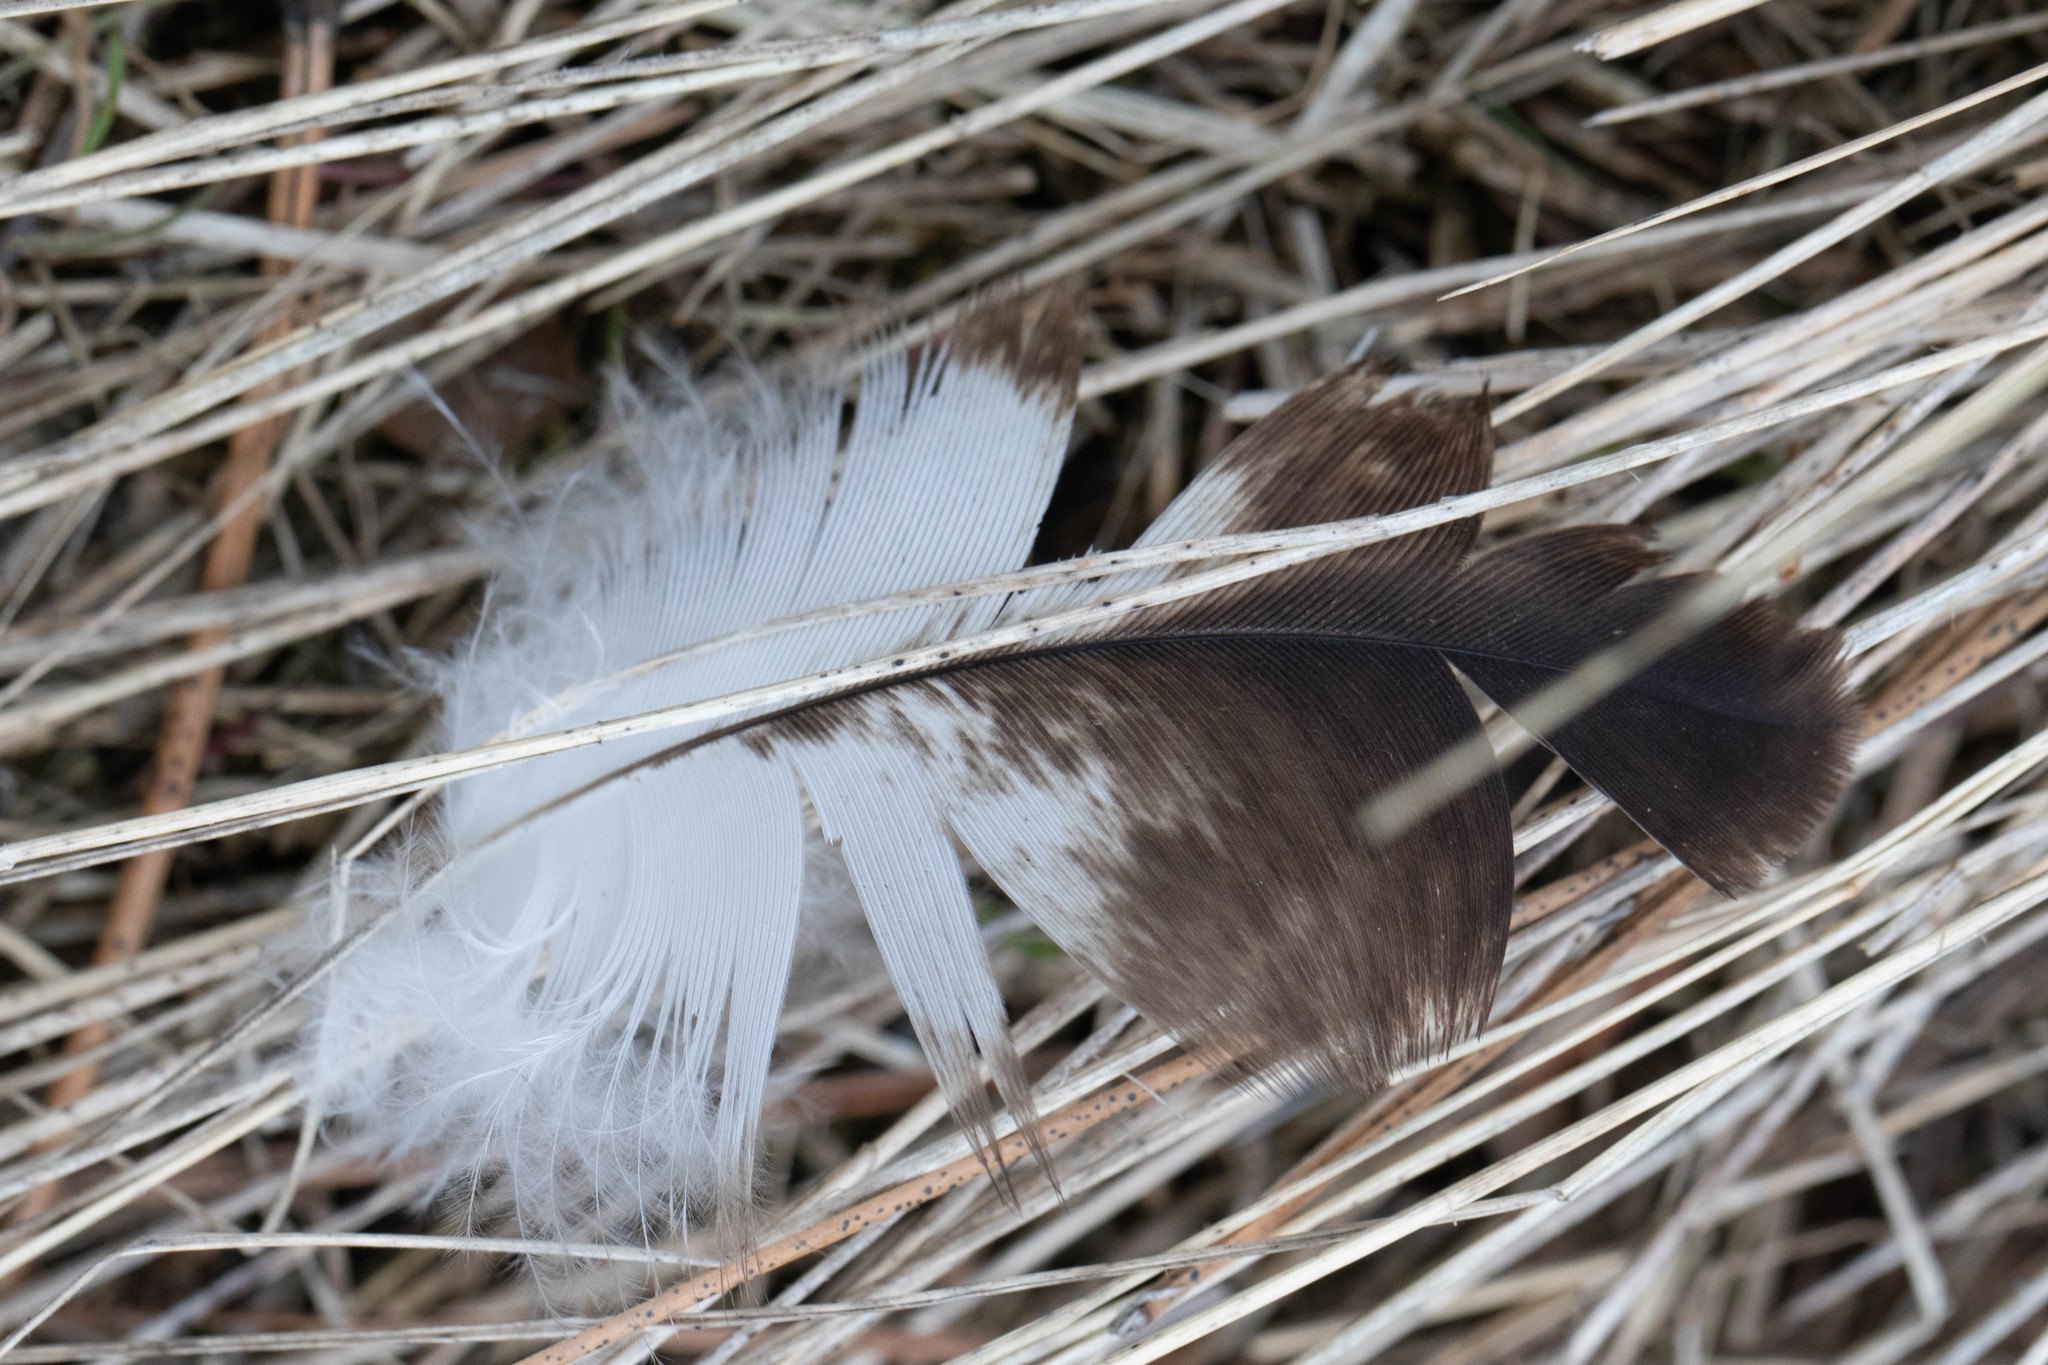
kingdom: Animalia
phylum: Chordata
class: Aves
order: Accipitriformes
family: Accipitridae
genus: Haliaeetus
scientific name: Haliaeetus leucocephalus
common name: Bald eagle
